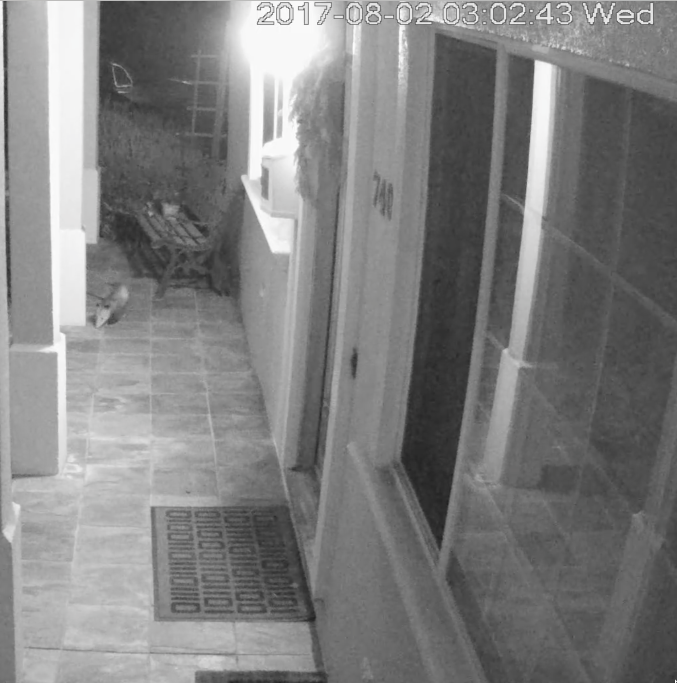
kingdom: Animalia
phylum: Chordata
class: Mammalia
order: Didelphimorphia
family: Didelphidae
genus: Didelphis
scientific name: Didelphis virginiana
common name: Virginia opossum
